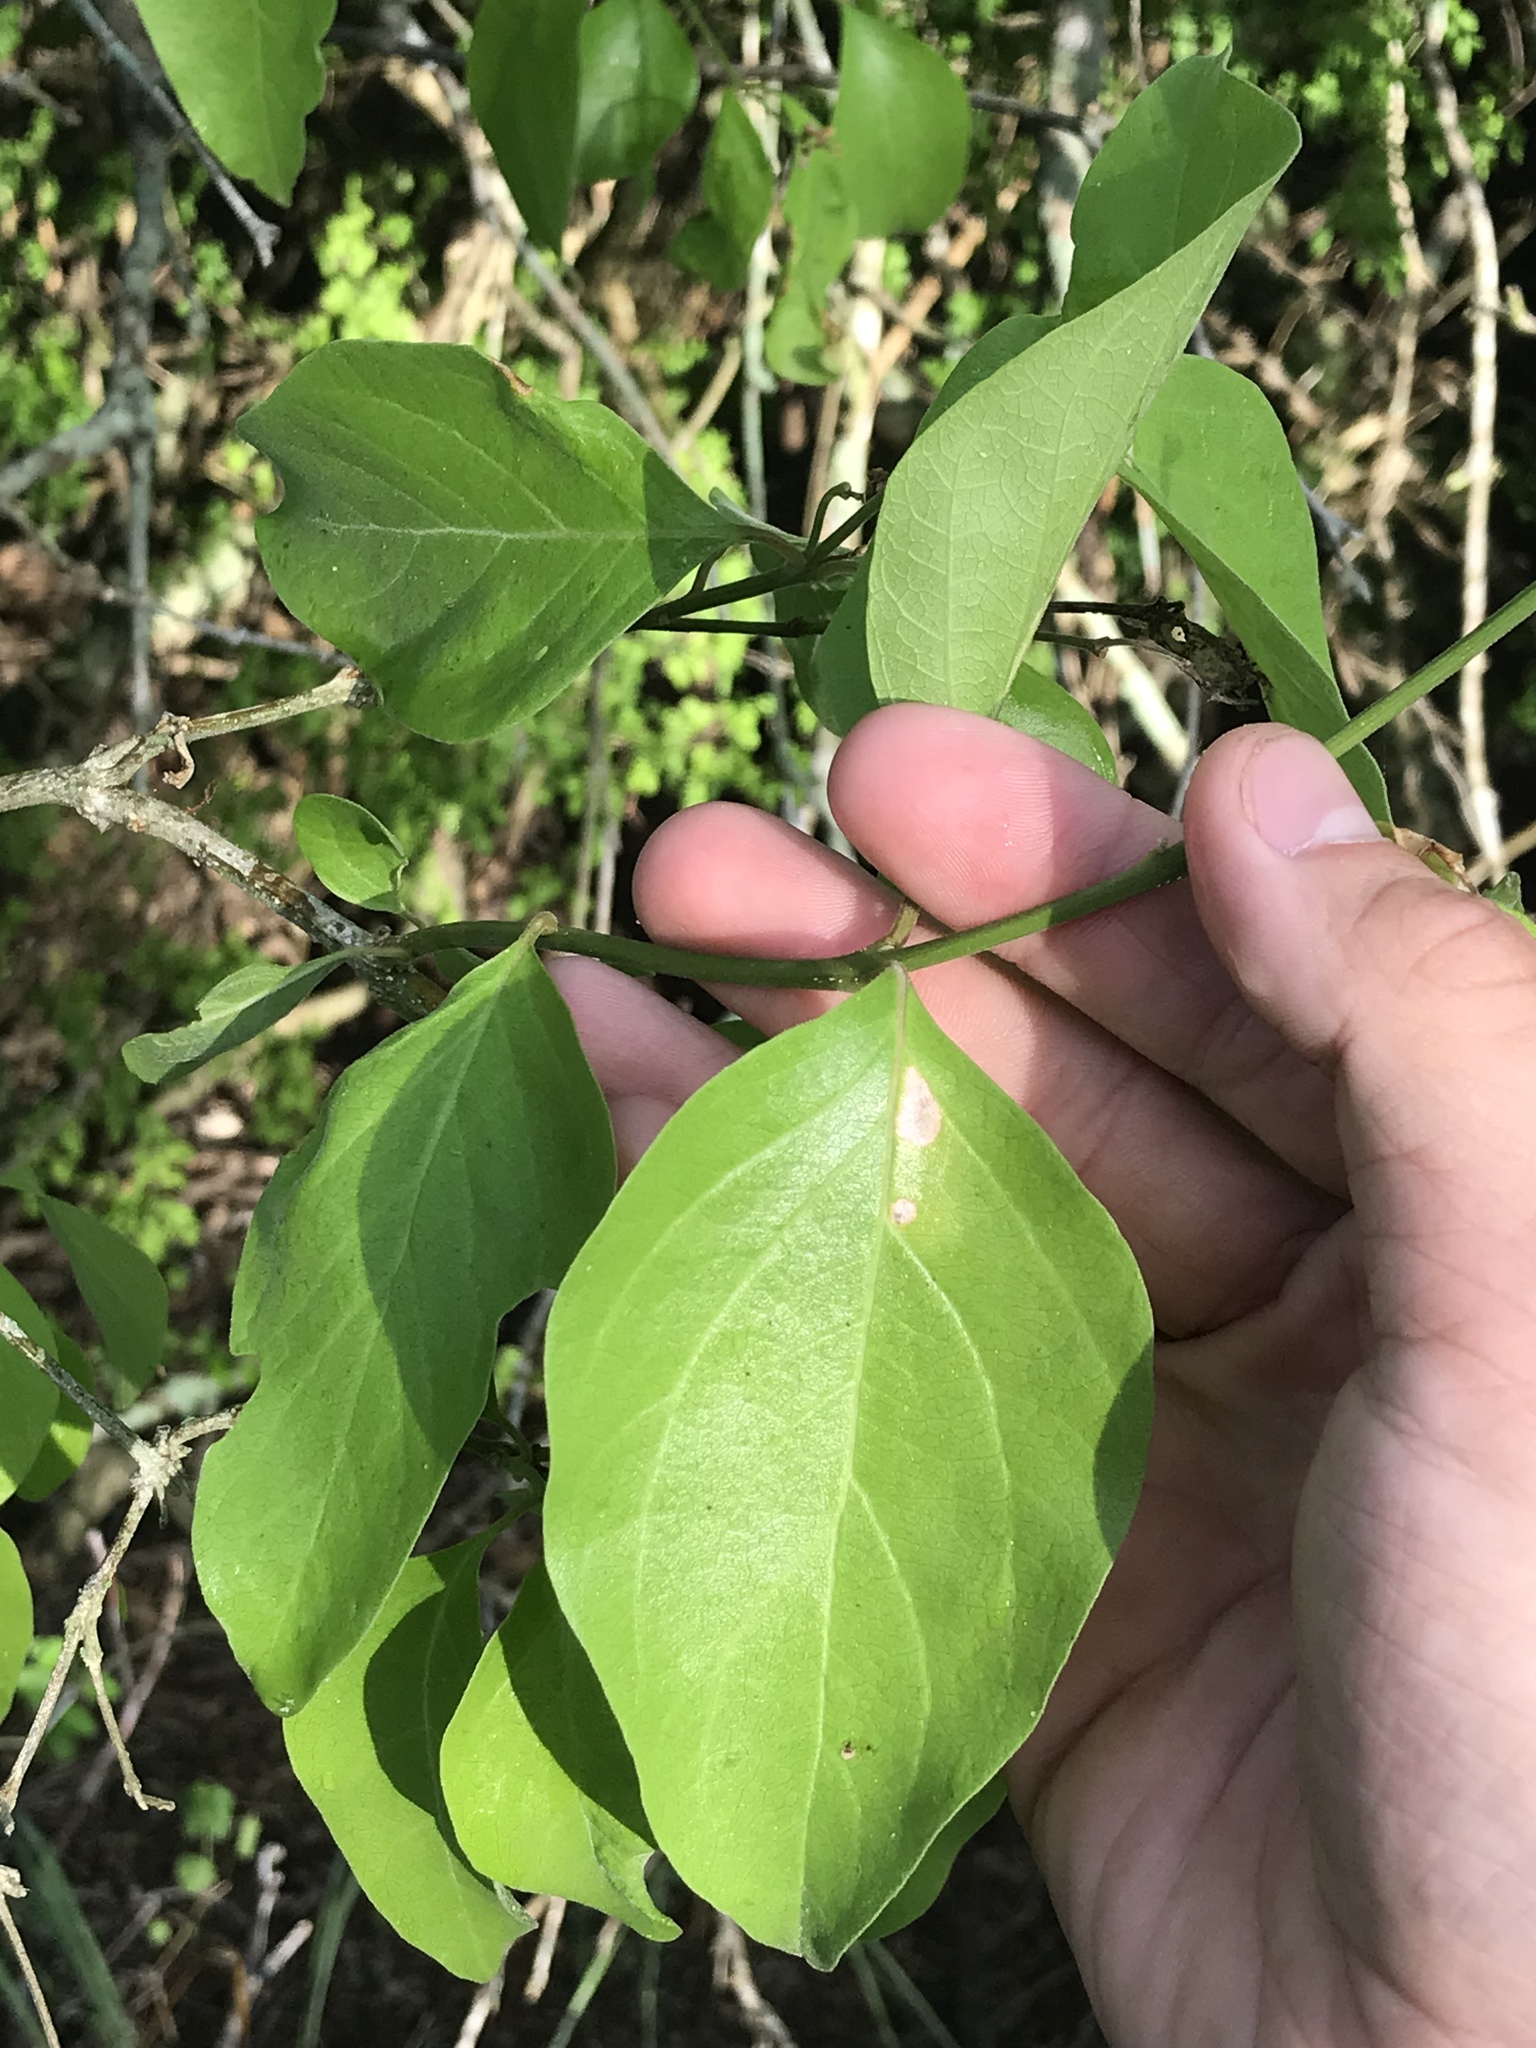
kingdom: Plantae
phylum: Tracheophyta
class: Magnoliopsida
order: Lamiales
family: Verbenaceae
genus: Citharexylum
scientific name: Citharexylum berlandieri
